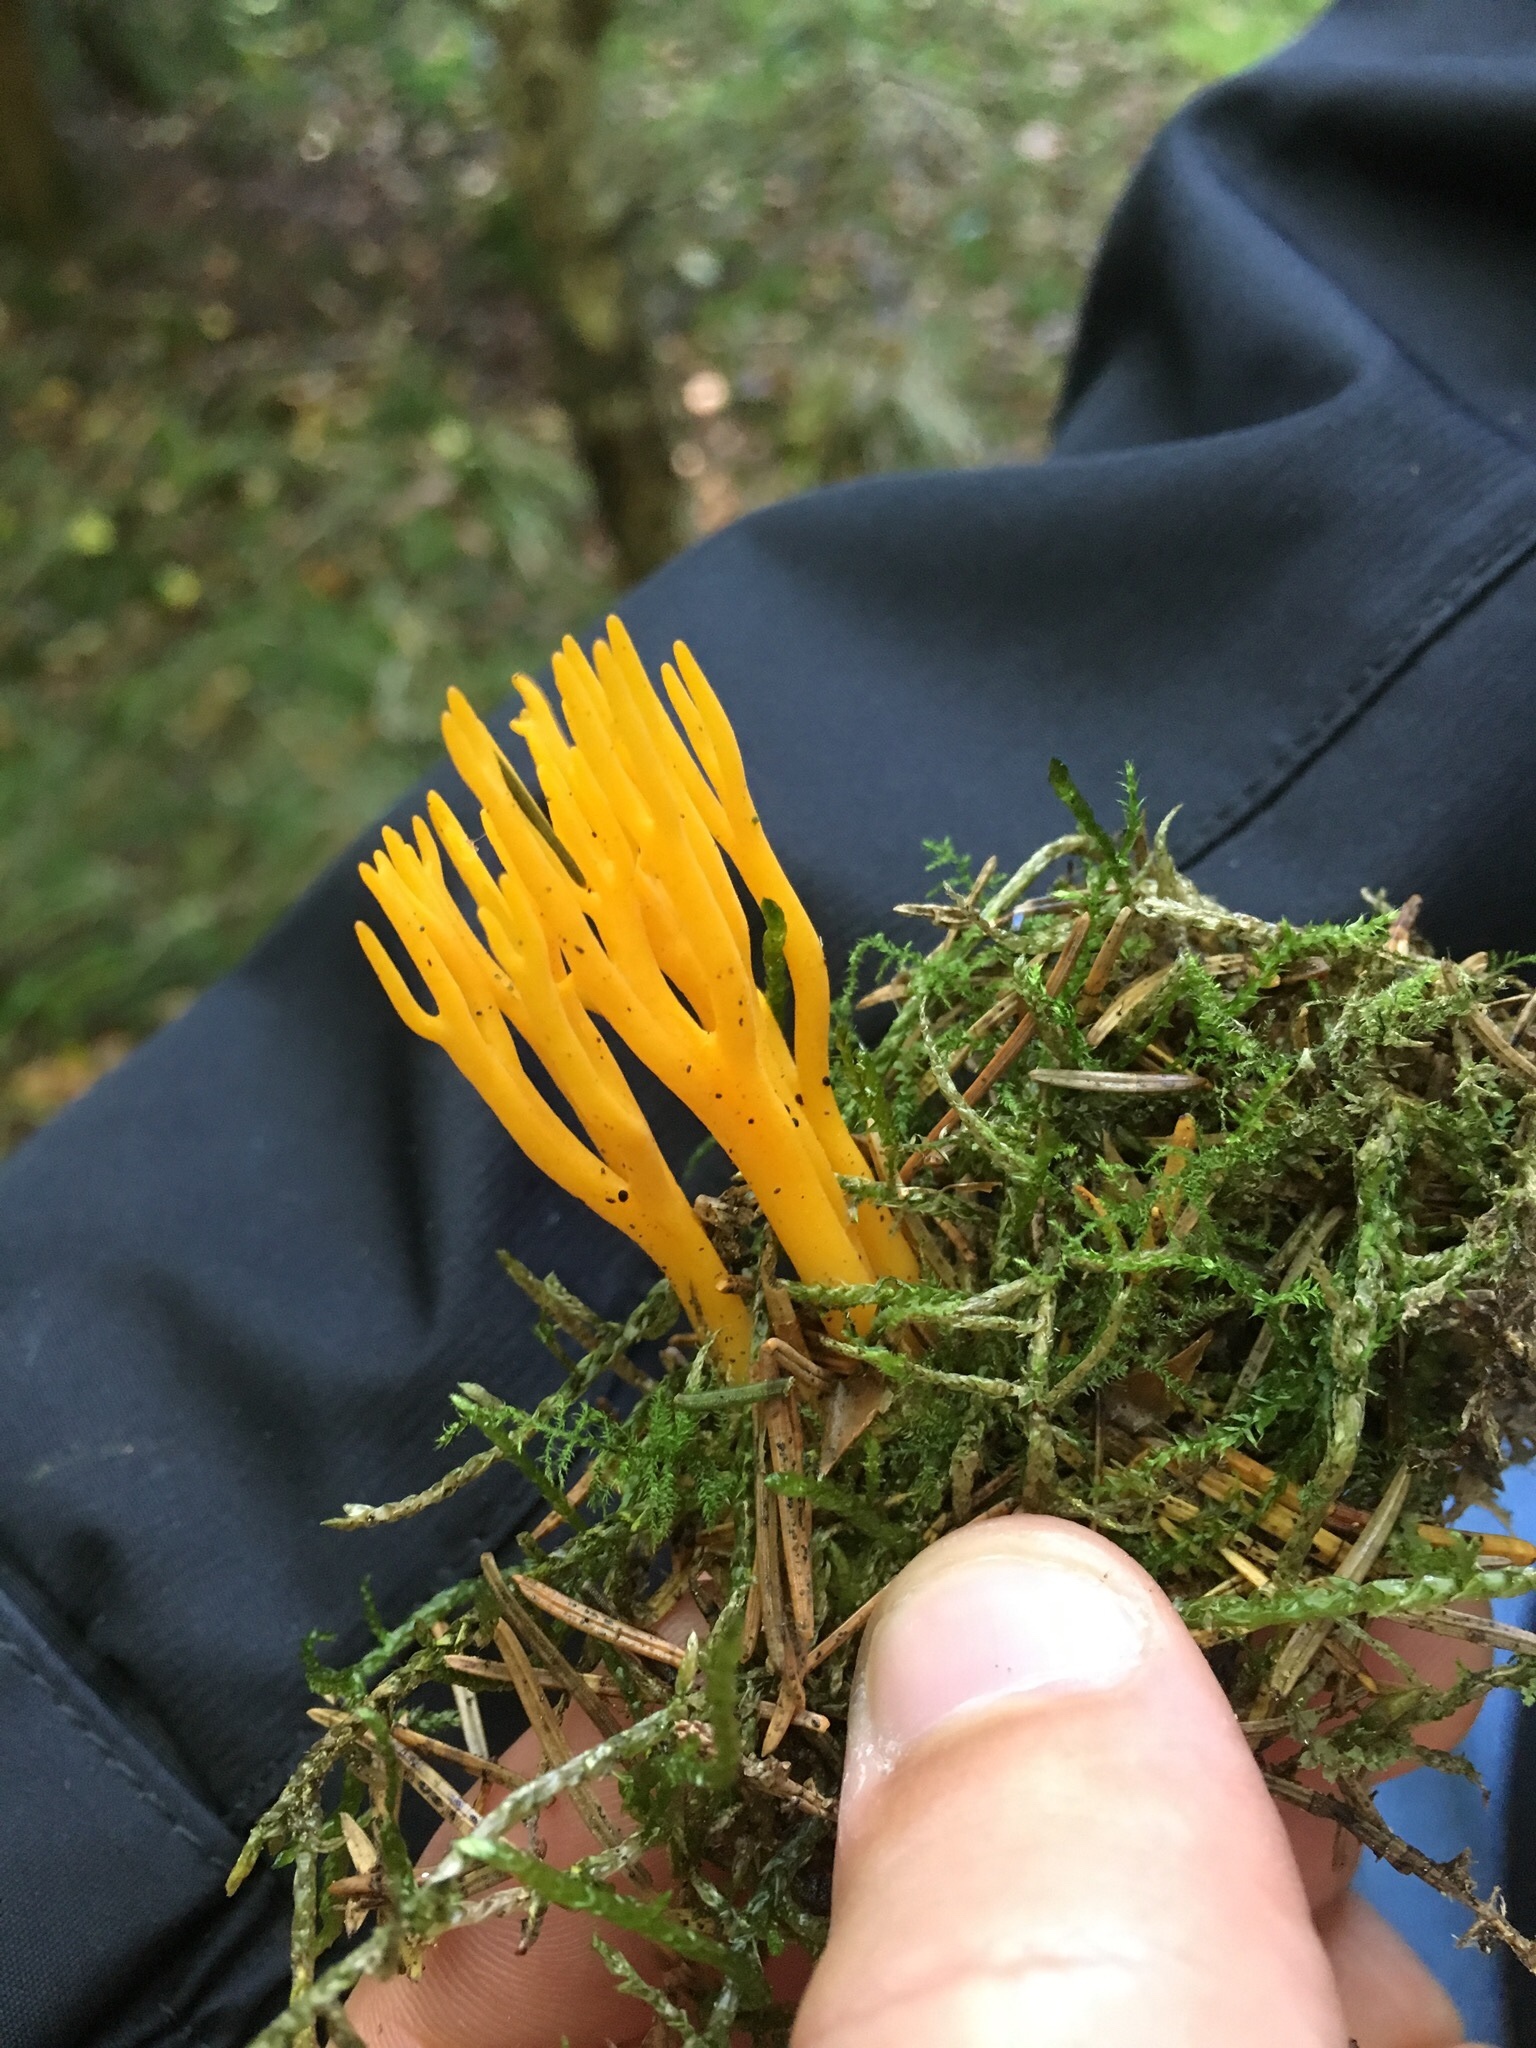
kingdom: Fungi
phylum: Basidiomycota
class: Dacrymycetes
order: Dacrymycetales
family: Dacrymycetaceae
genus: Calocera
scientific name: Calocera viscosa
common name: Yellow stagshorn
